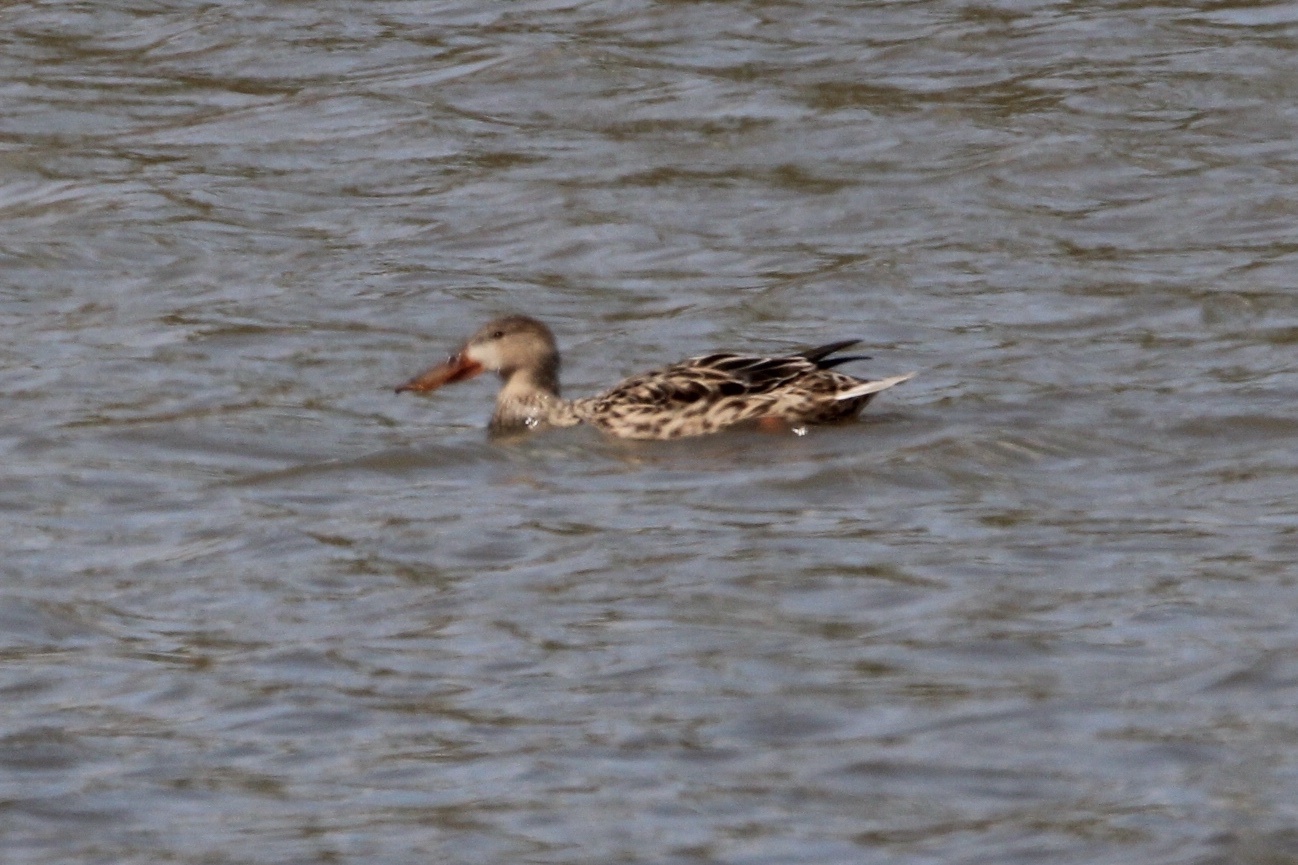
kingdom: Animalia
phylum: Chordata
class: Aves
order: Anseriformes
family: Anatidae
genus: Spatula
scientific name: Spatula clypeata
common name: Northern shoveler
